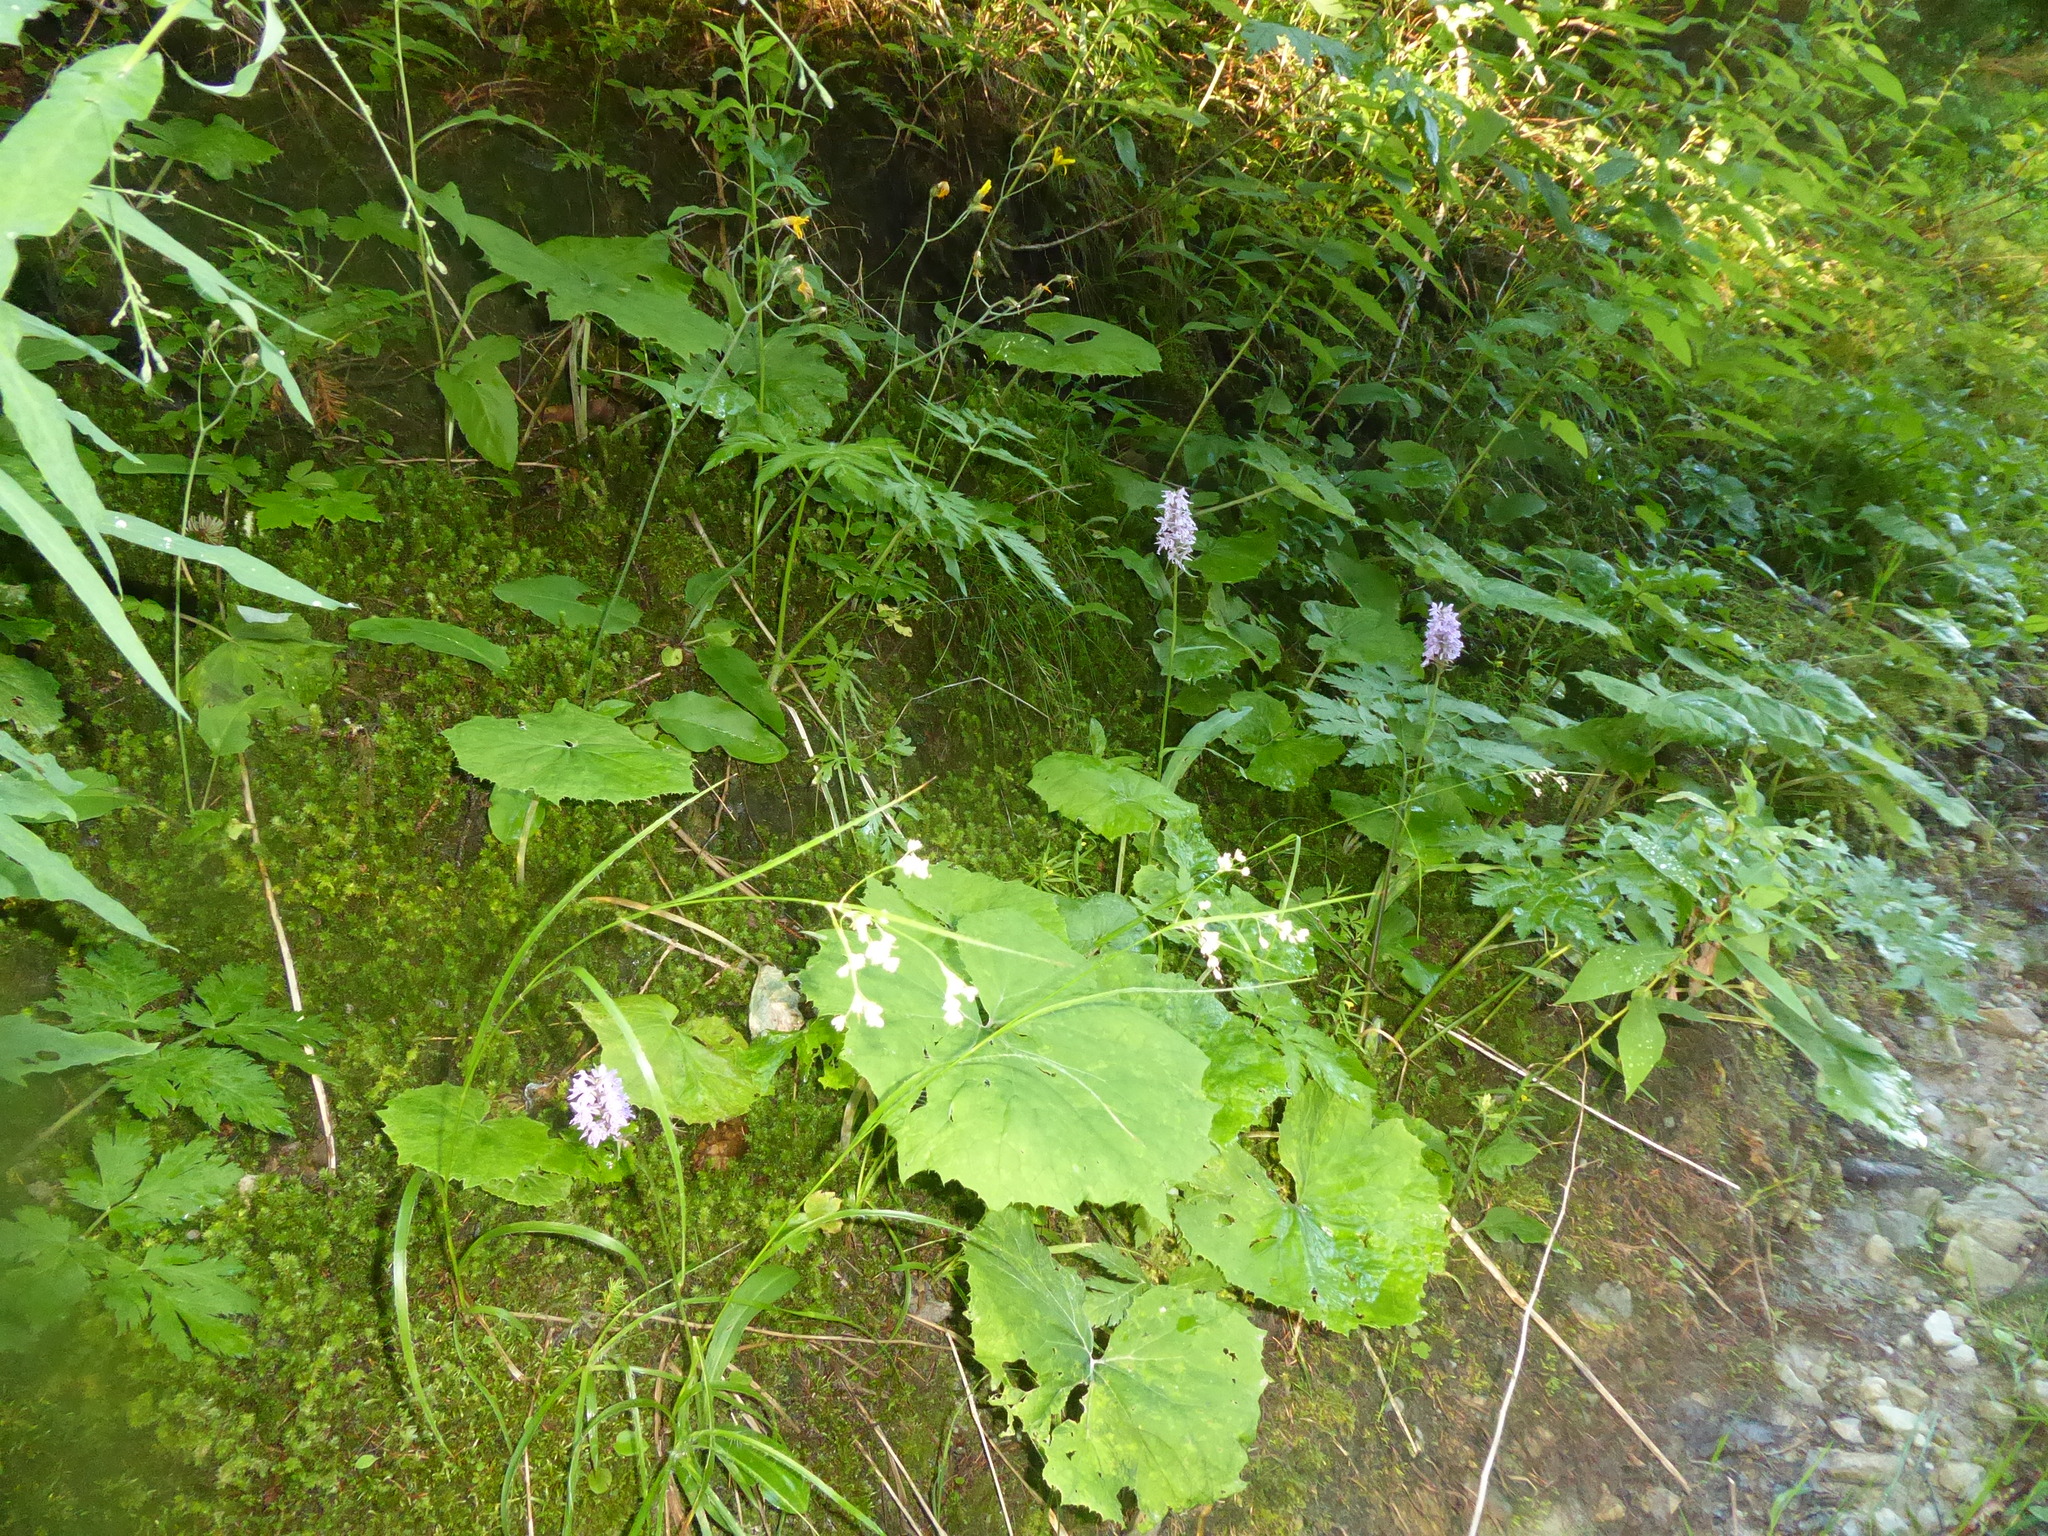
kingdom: Plantae
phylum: Tracheophyta
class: Liliopsida
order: Asparagales
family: Orchidaceae
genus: Dactylorhiza
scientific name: Dactylorhiza maculata
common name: Heath spotted-orchid
